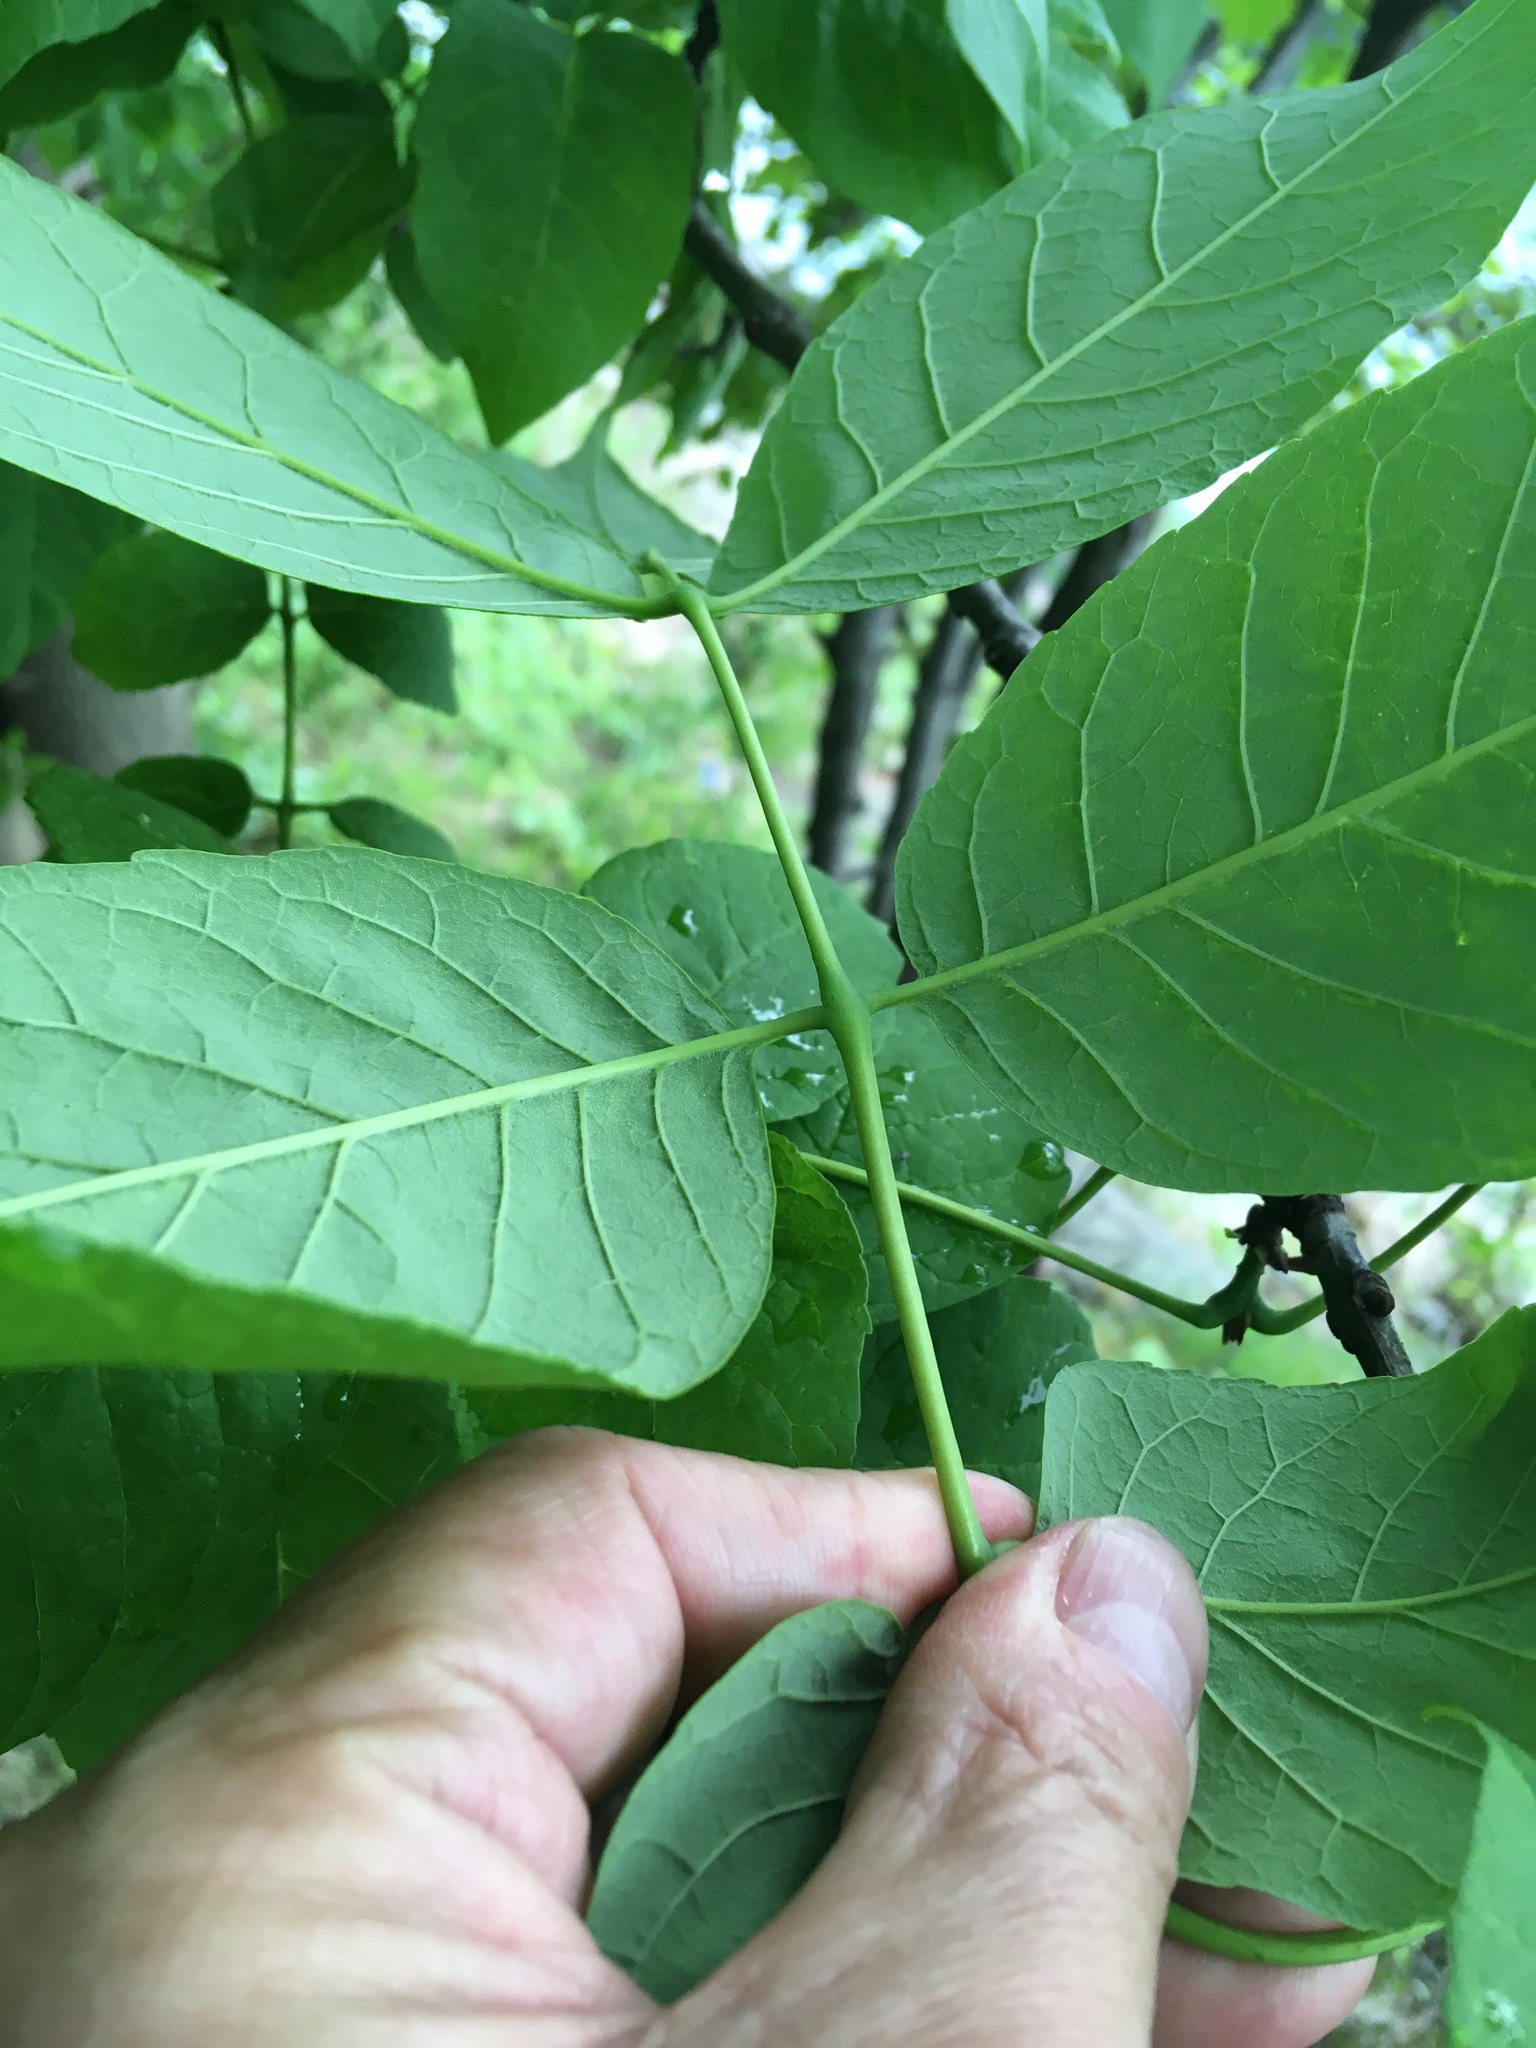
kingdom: Plantae
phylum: Tracheophyta
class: Magnoliopsida
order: Lamiales
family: Oleaceae
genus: Fraxinus
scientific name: Fraxinus americana
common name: White ash
